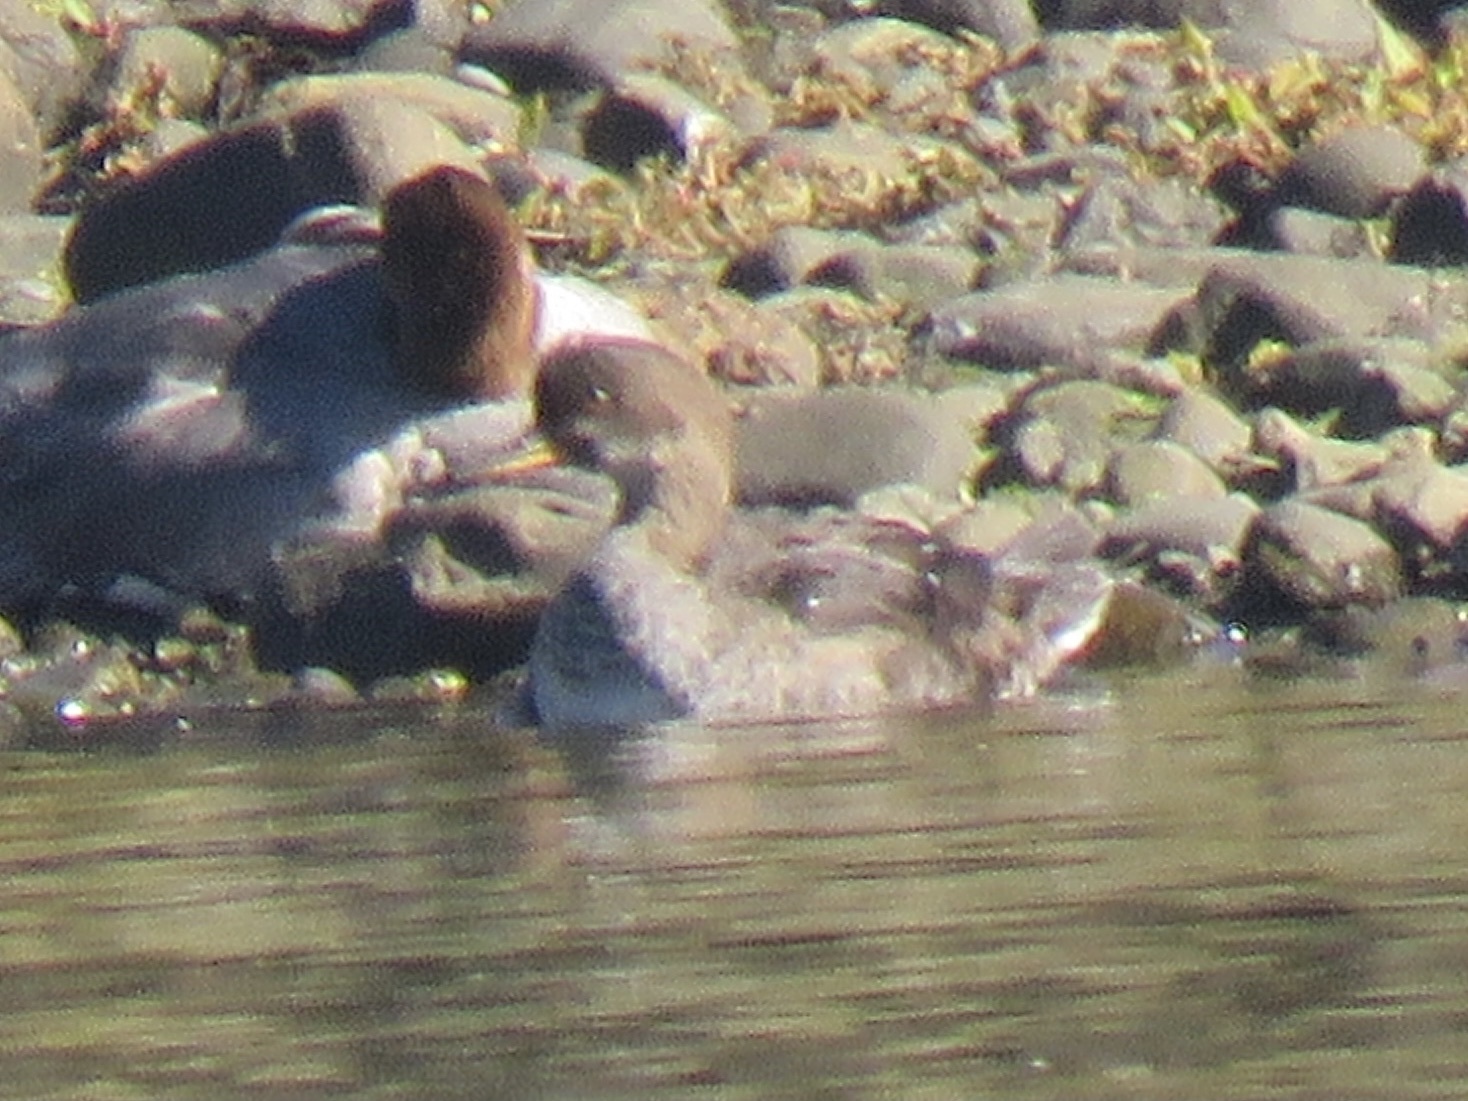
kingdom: Animalia
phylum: Chordata
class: Aves
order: Anseriformes
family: Anatidae
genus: Lophodytes
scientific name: Lophodytes cucullatus
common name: Hooded merganser
